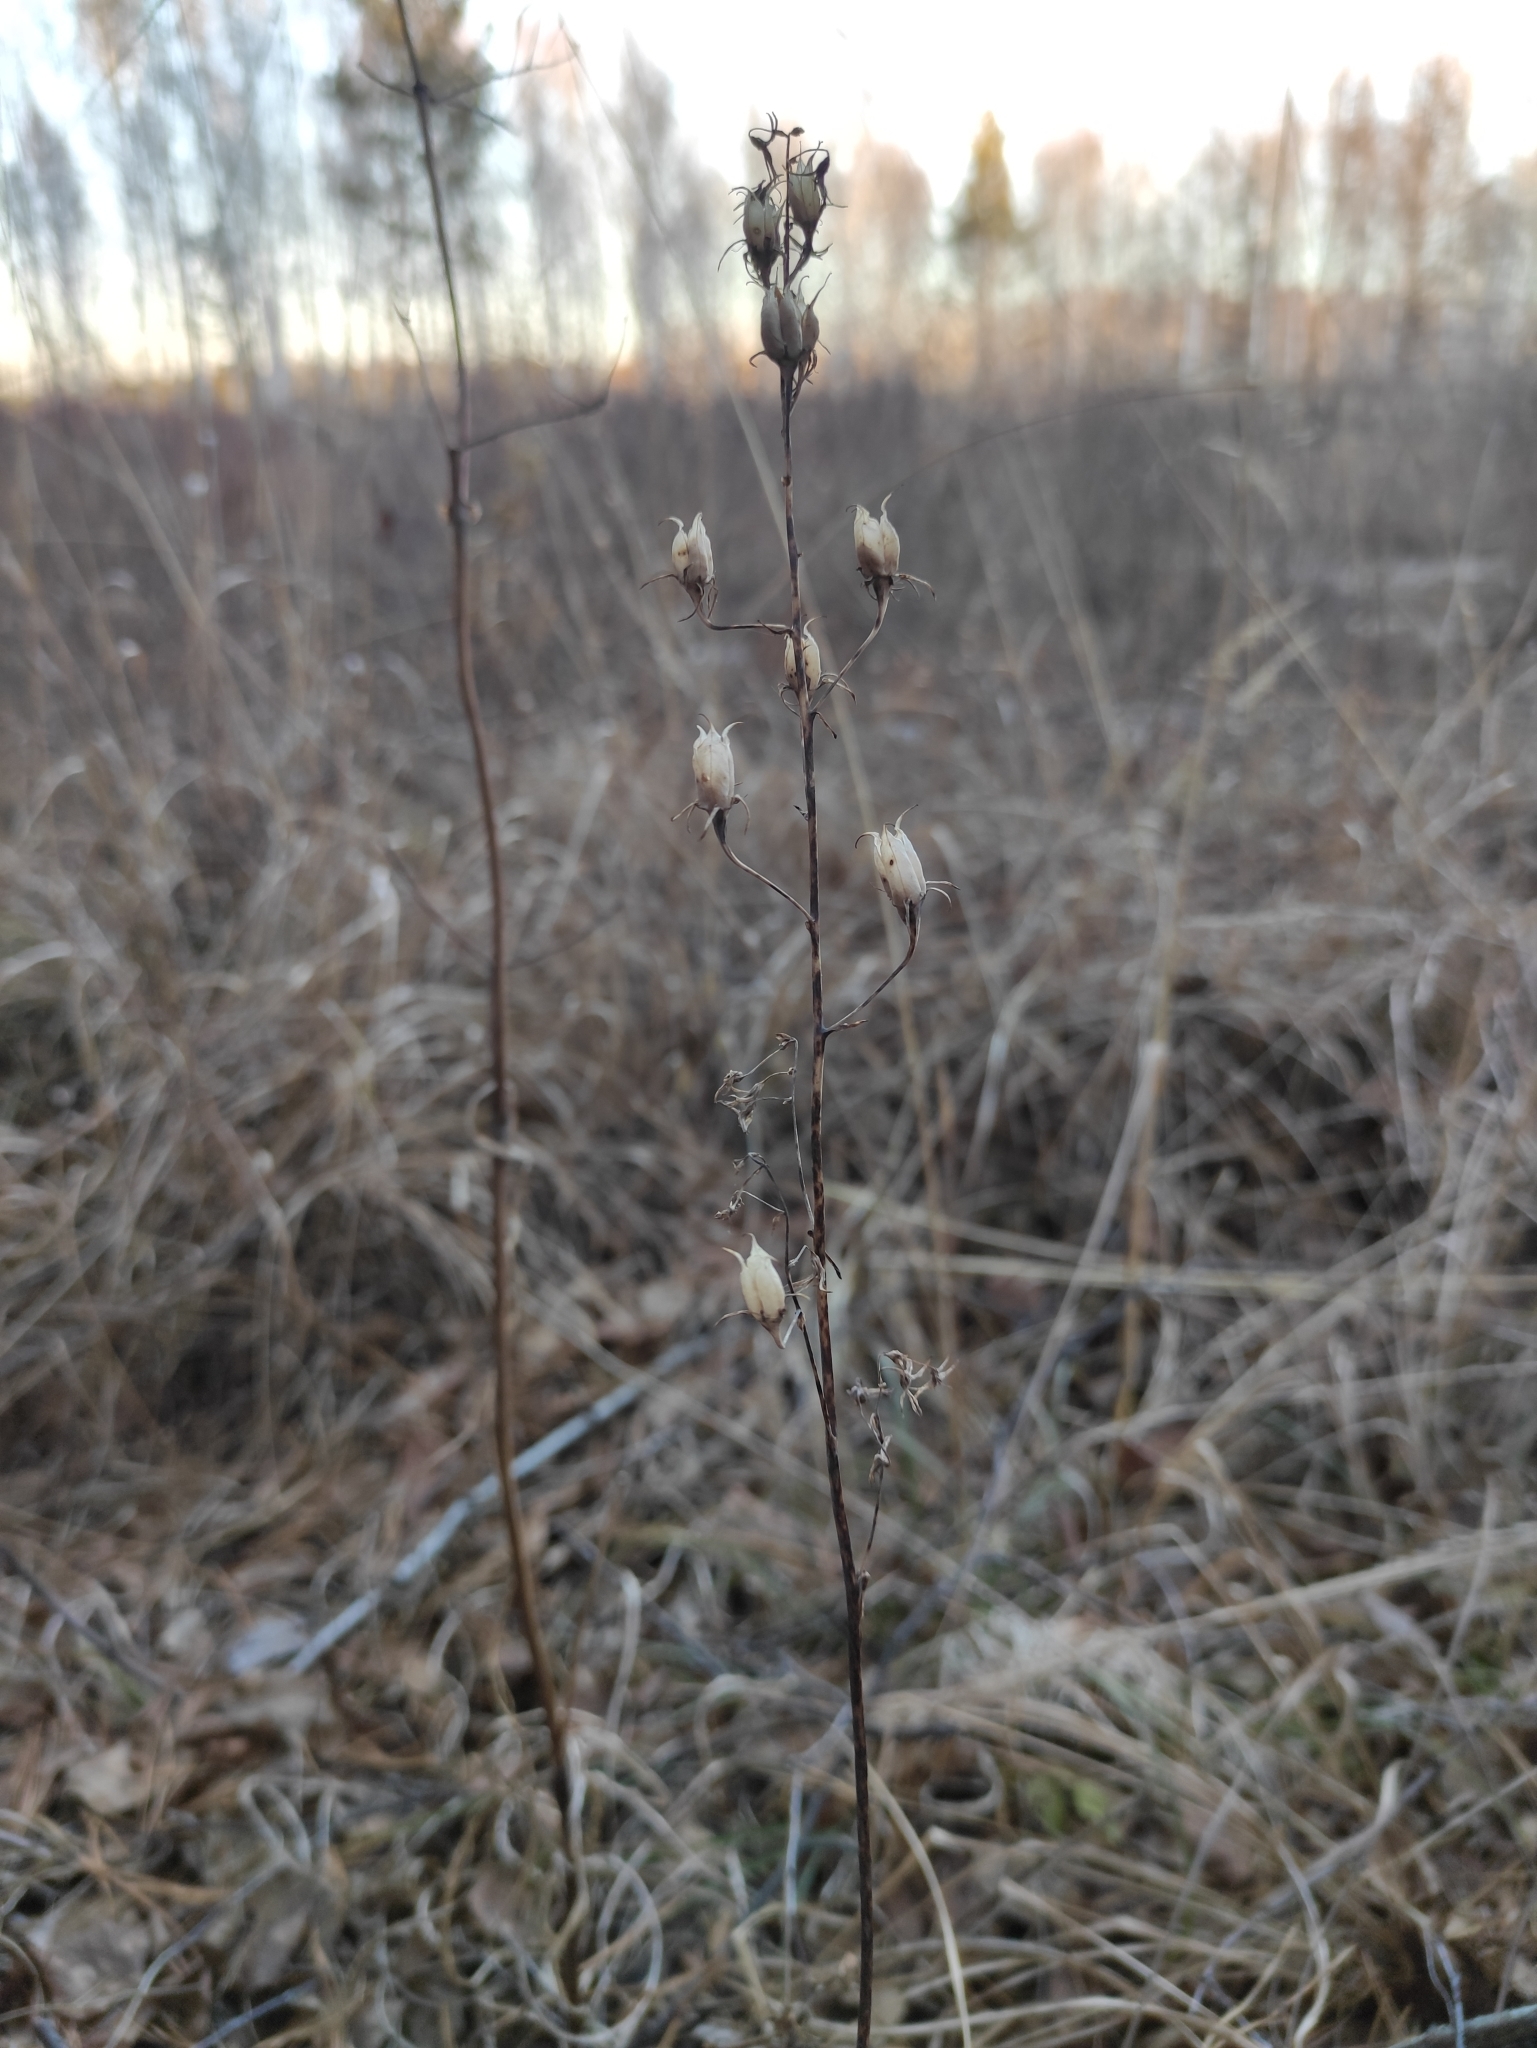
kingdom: Plantae
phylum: Tracheophyta
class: Liliopsida
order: Liliales
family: Melanthiaceae
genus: Anticlea
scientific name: Anticlea sibirica
